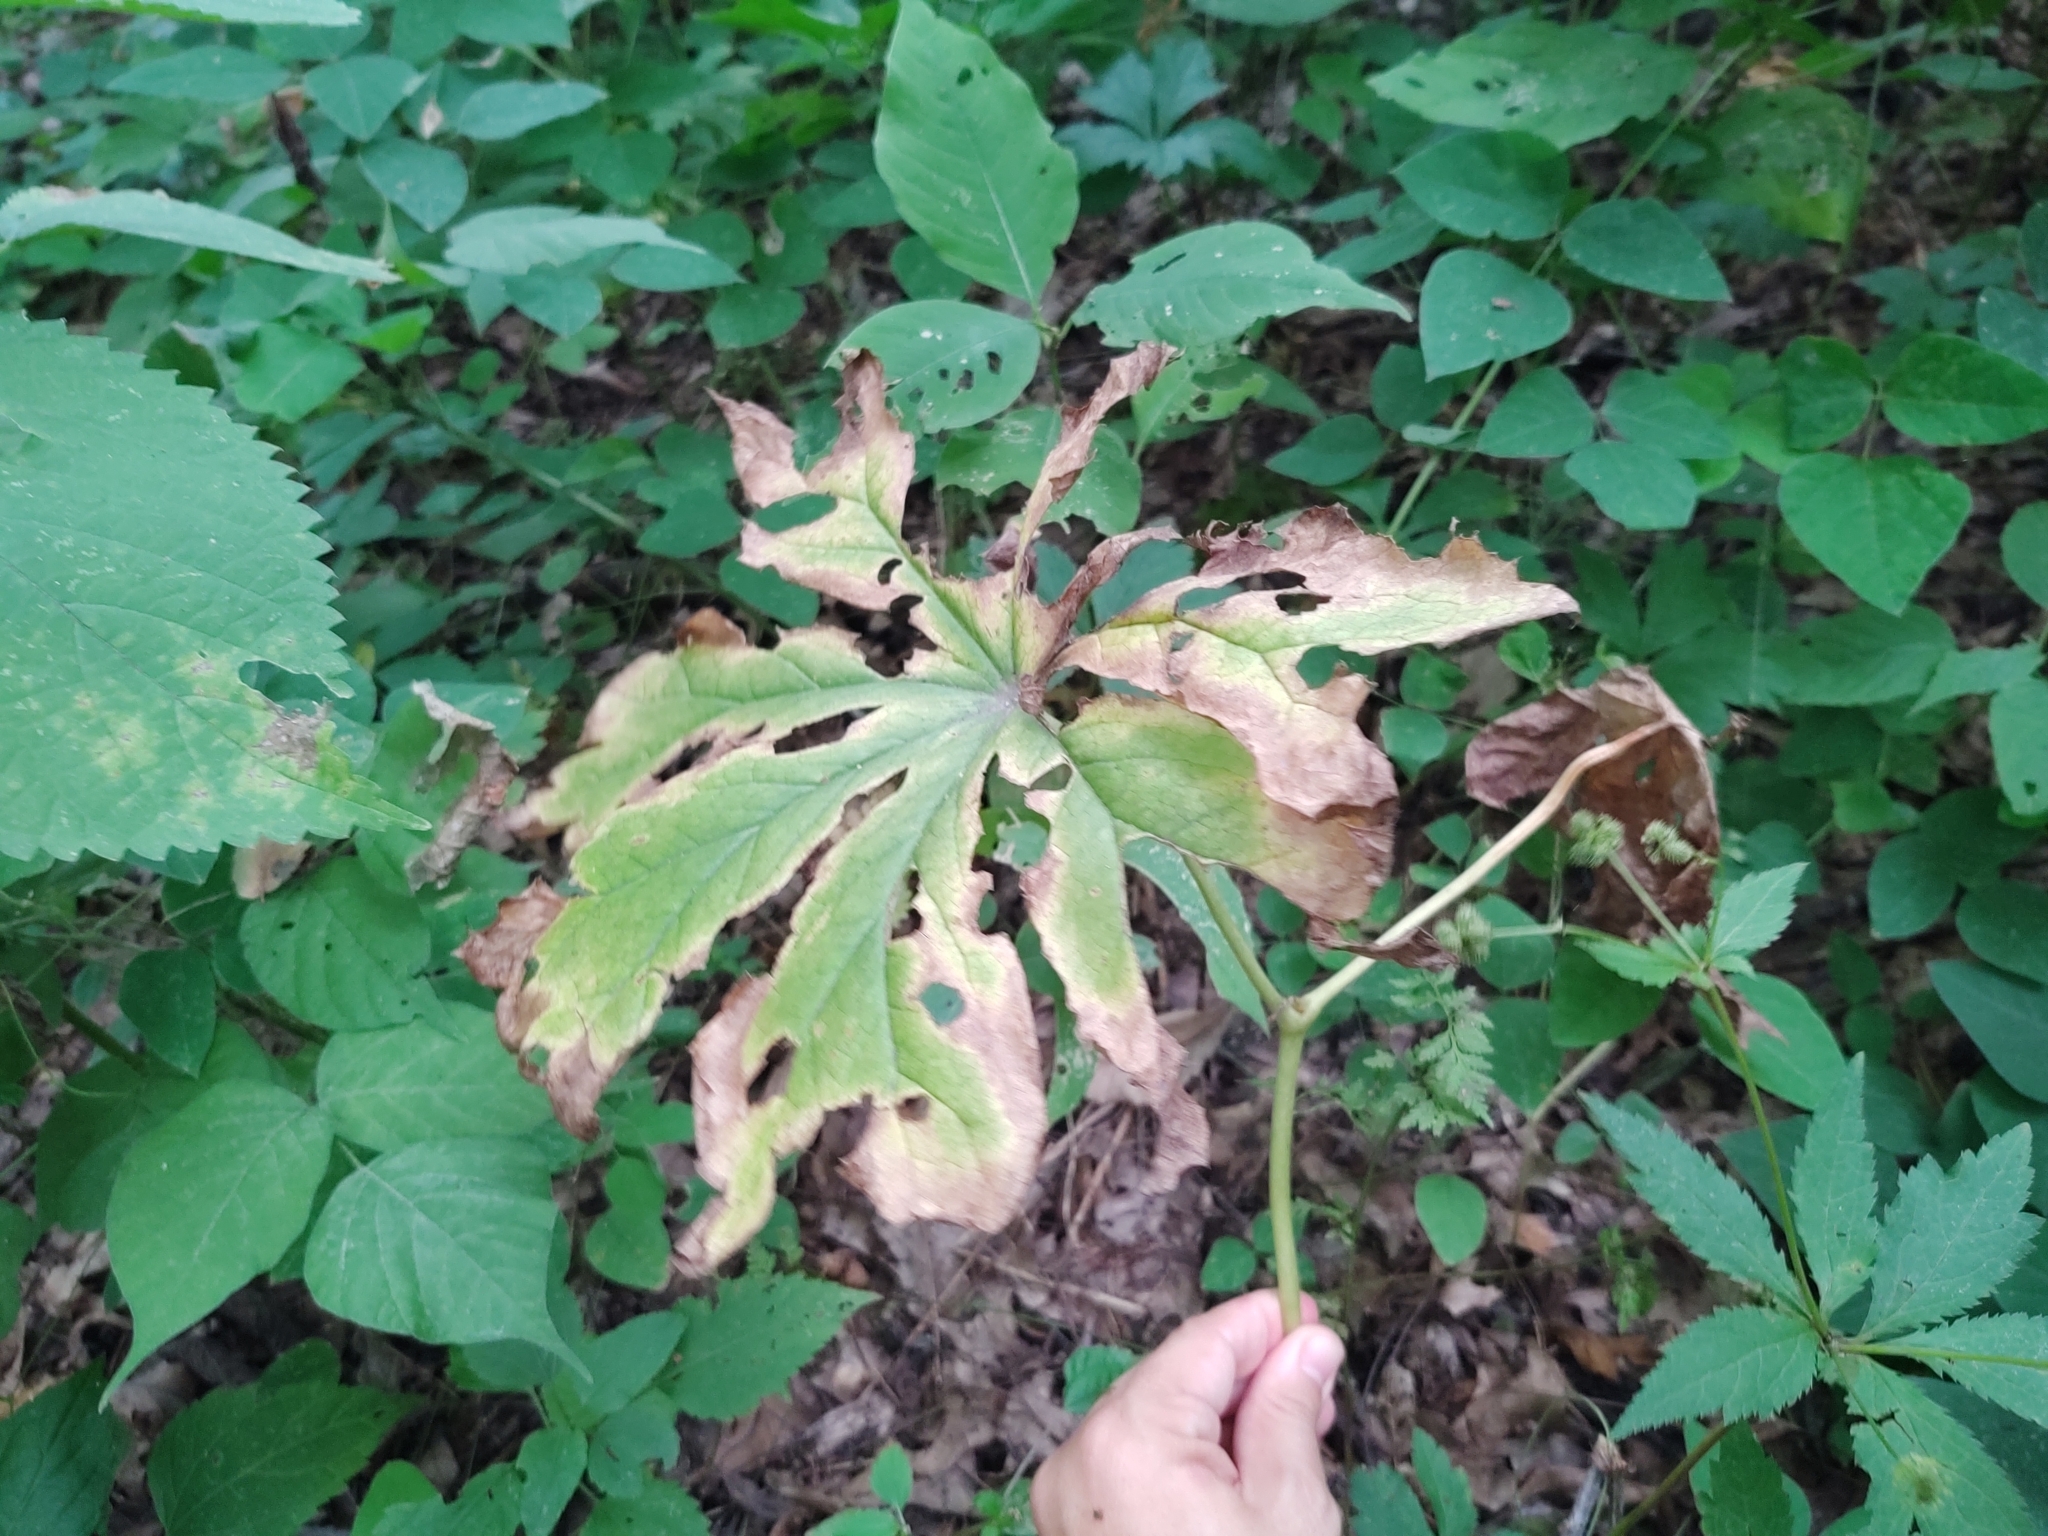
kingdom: Plantae
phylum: Tracheophyta
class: Magnoliopsida
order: Ranunculales
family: Berberidaceae
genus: Podophyllum
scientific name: Podophyllum peltatum
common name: Wild mandrake
